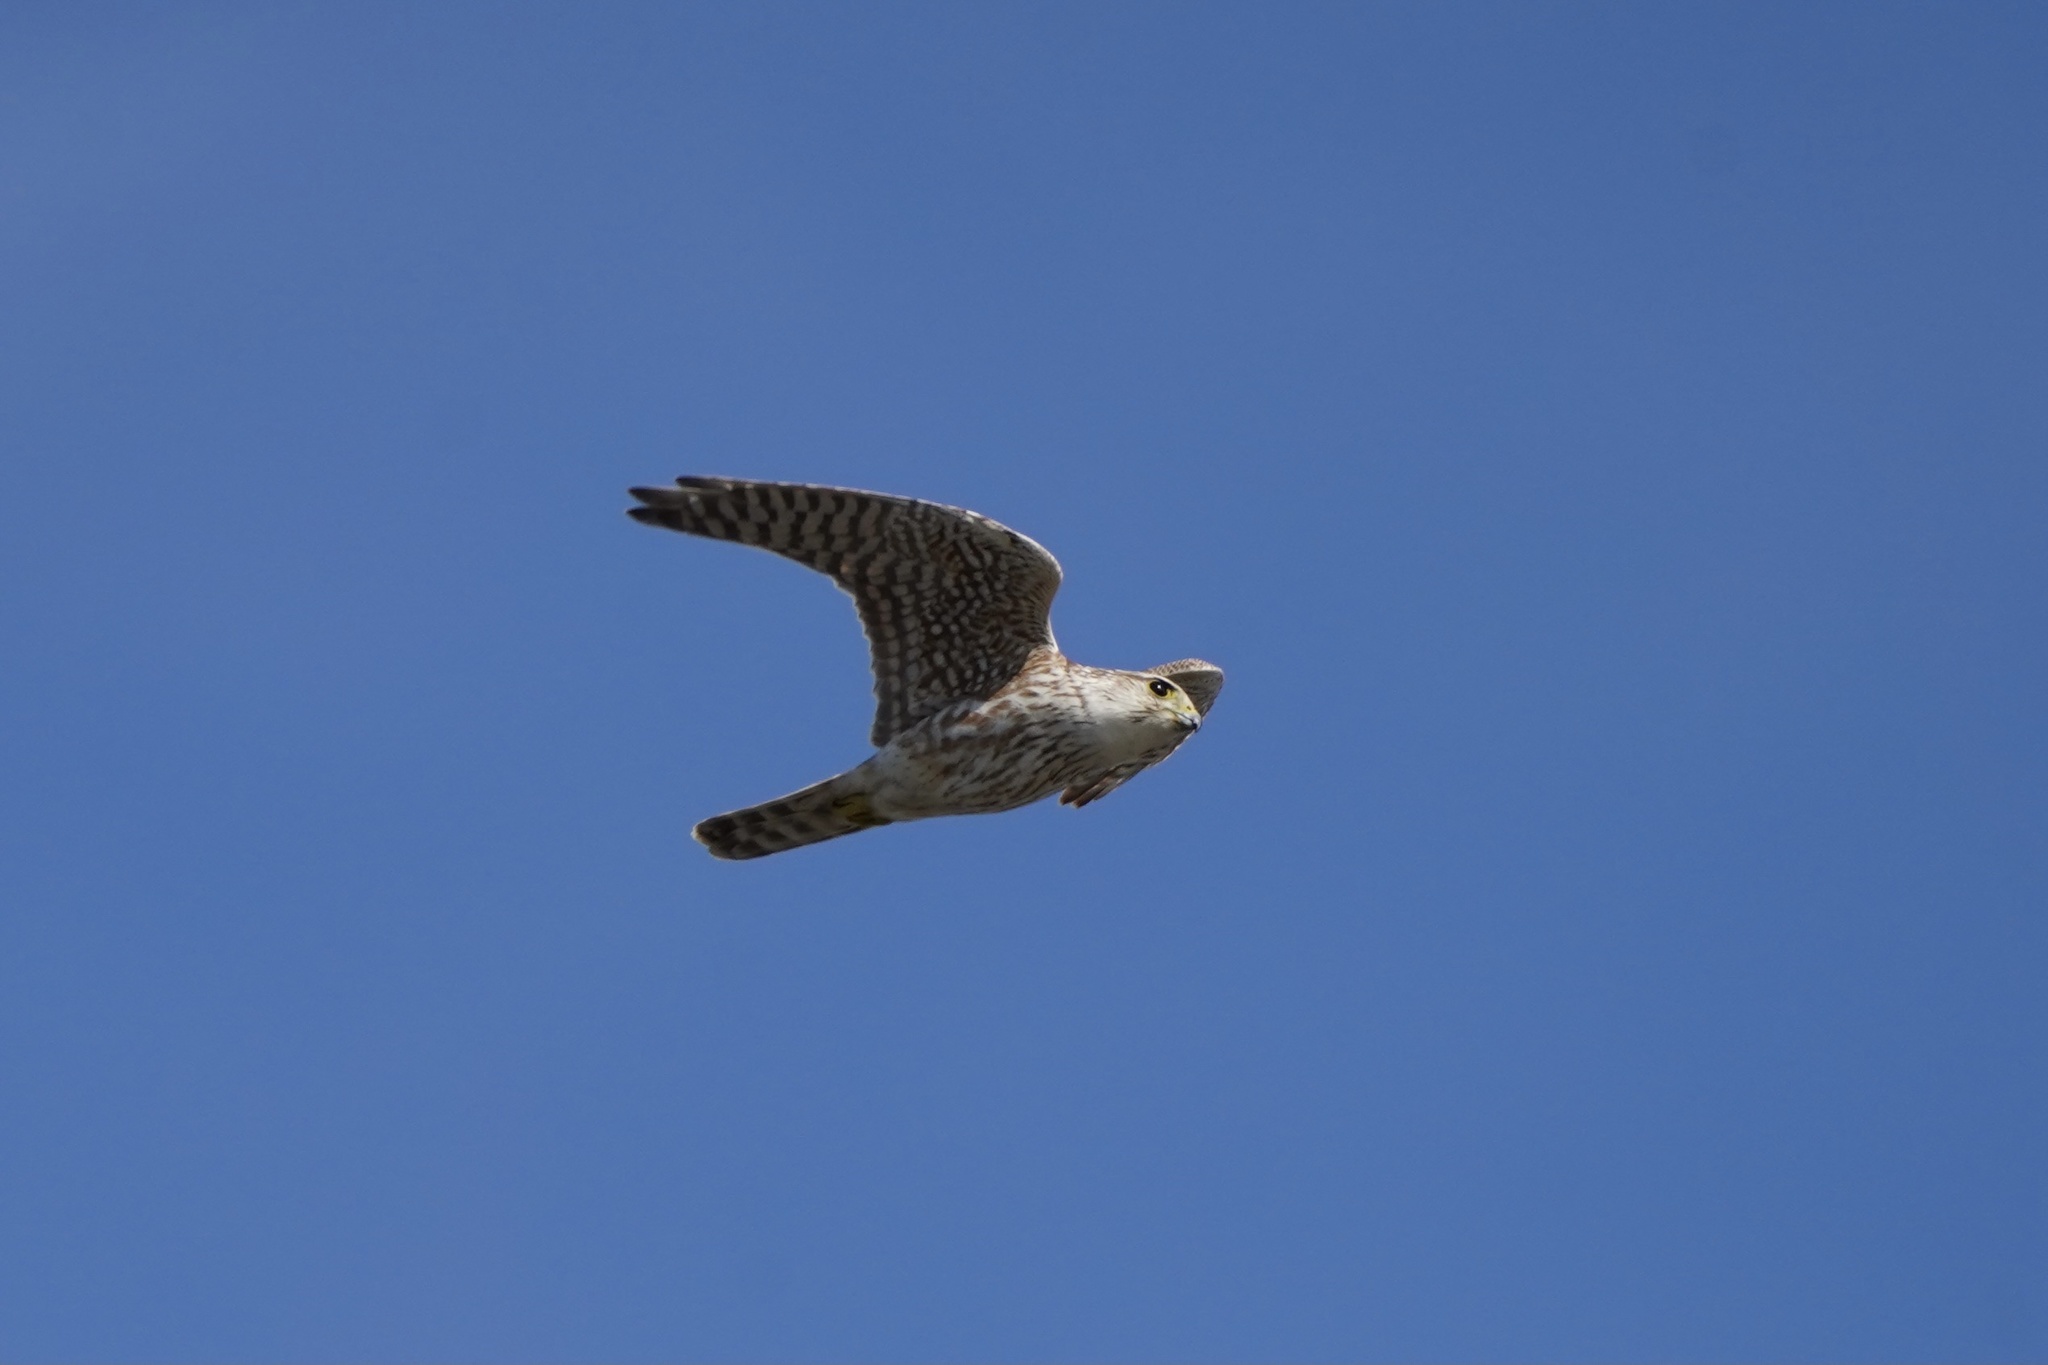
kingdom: Animalia
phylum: Chordata
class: Aves
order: Falconiformes
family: Falconidae
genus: Falco
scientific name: Falco columbarius
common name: Merlin
